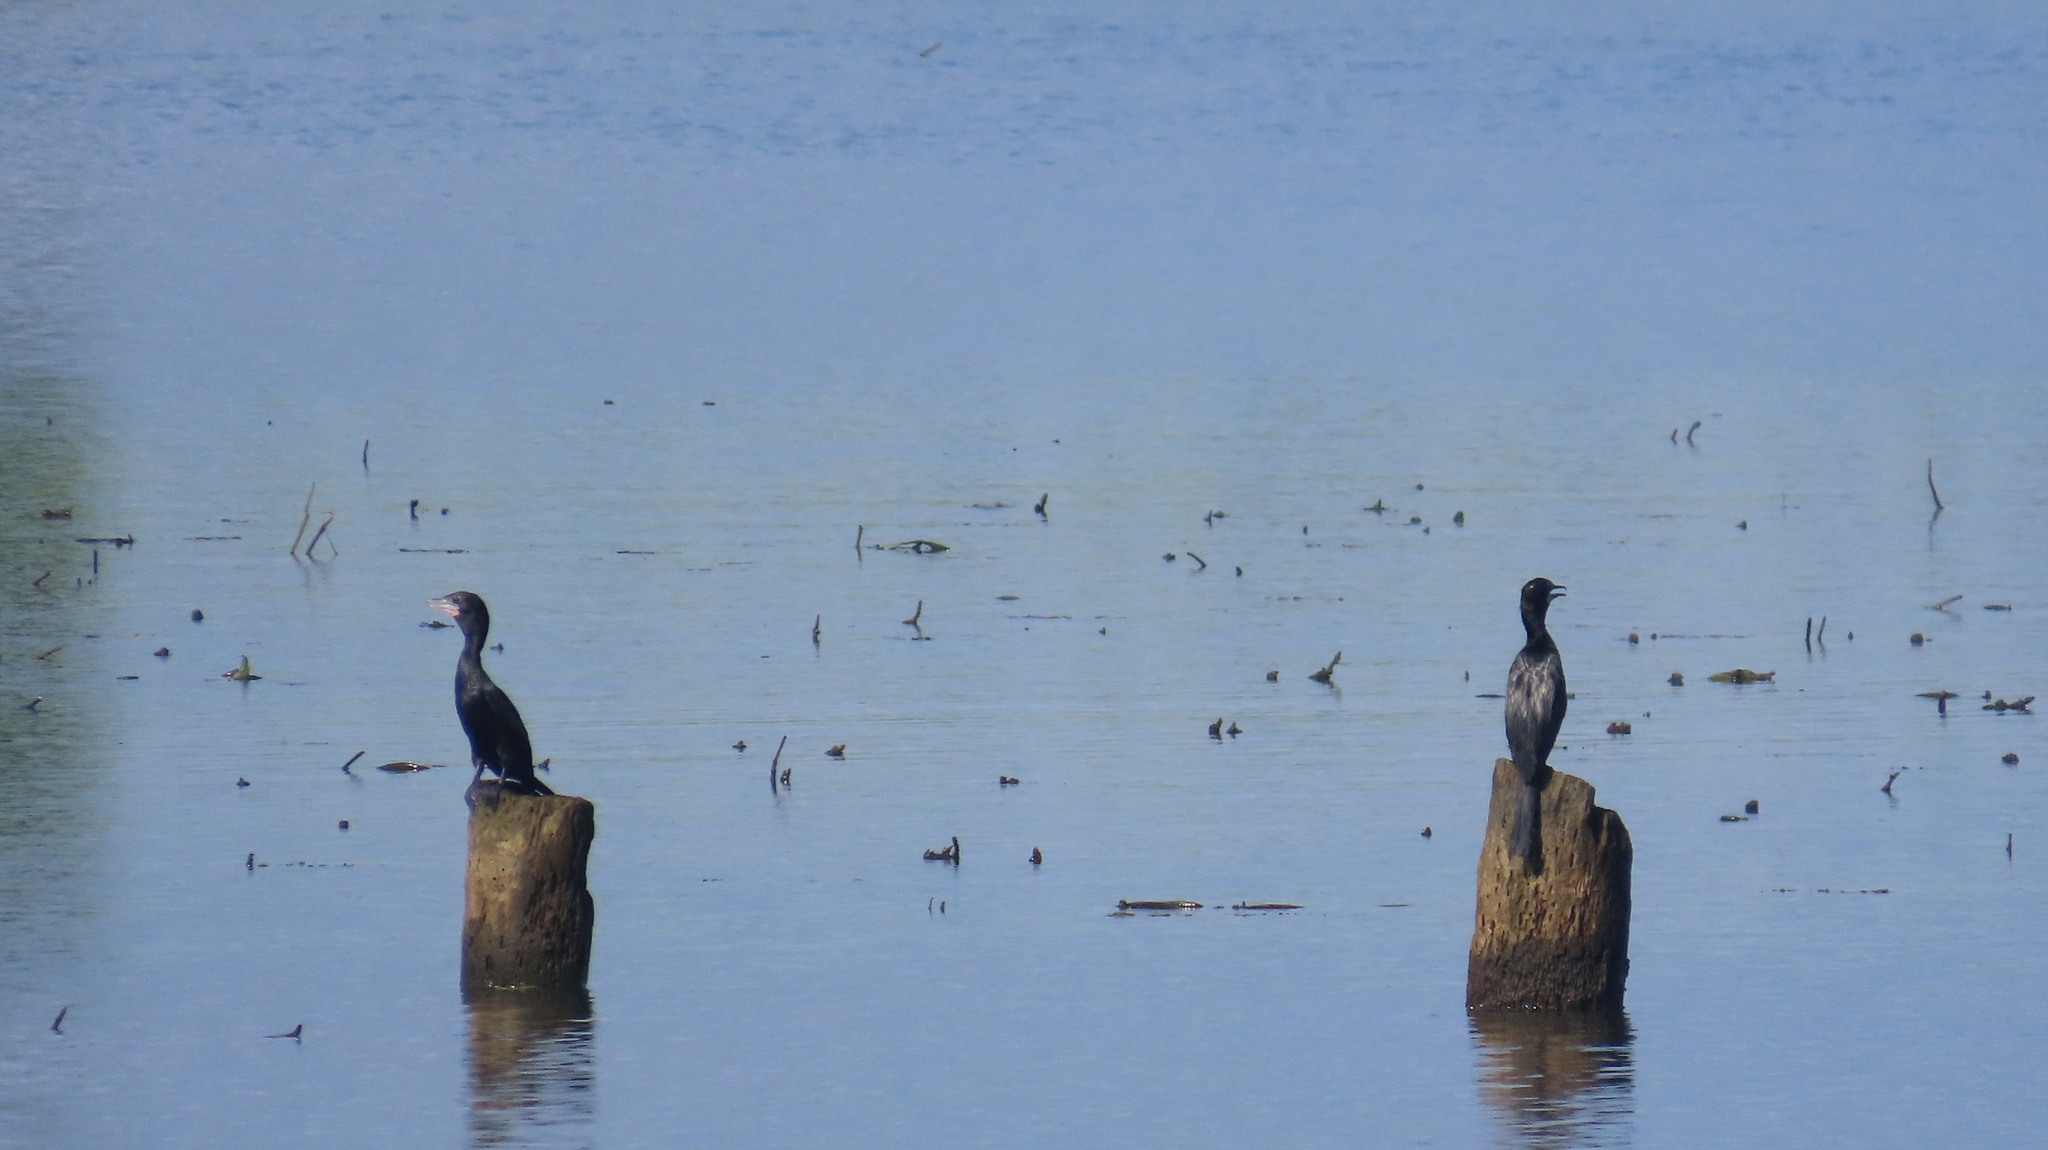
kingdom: Animalia
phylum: Chordata
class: Aves
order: Suliformes
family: Phalacrocoracidae
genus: Microcarbo
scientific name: Microcarbo niger
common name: Little cormorant
